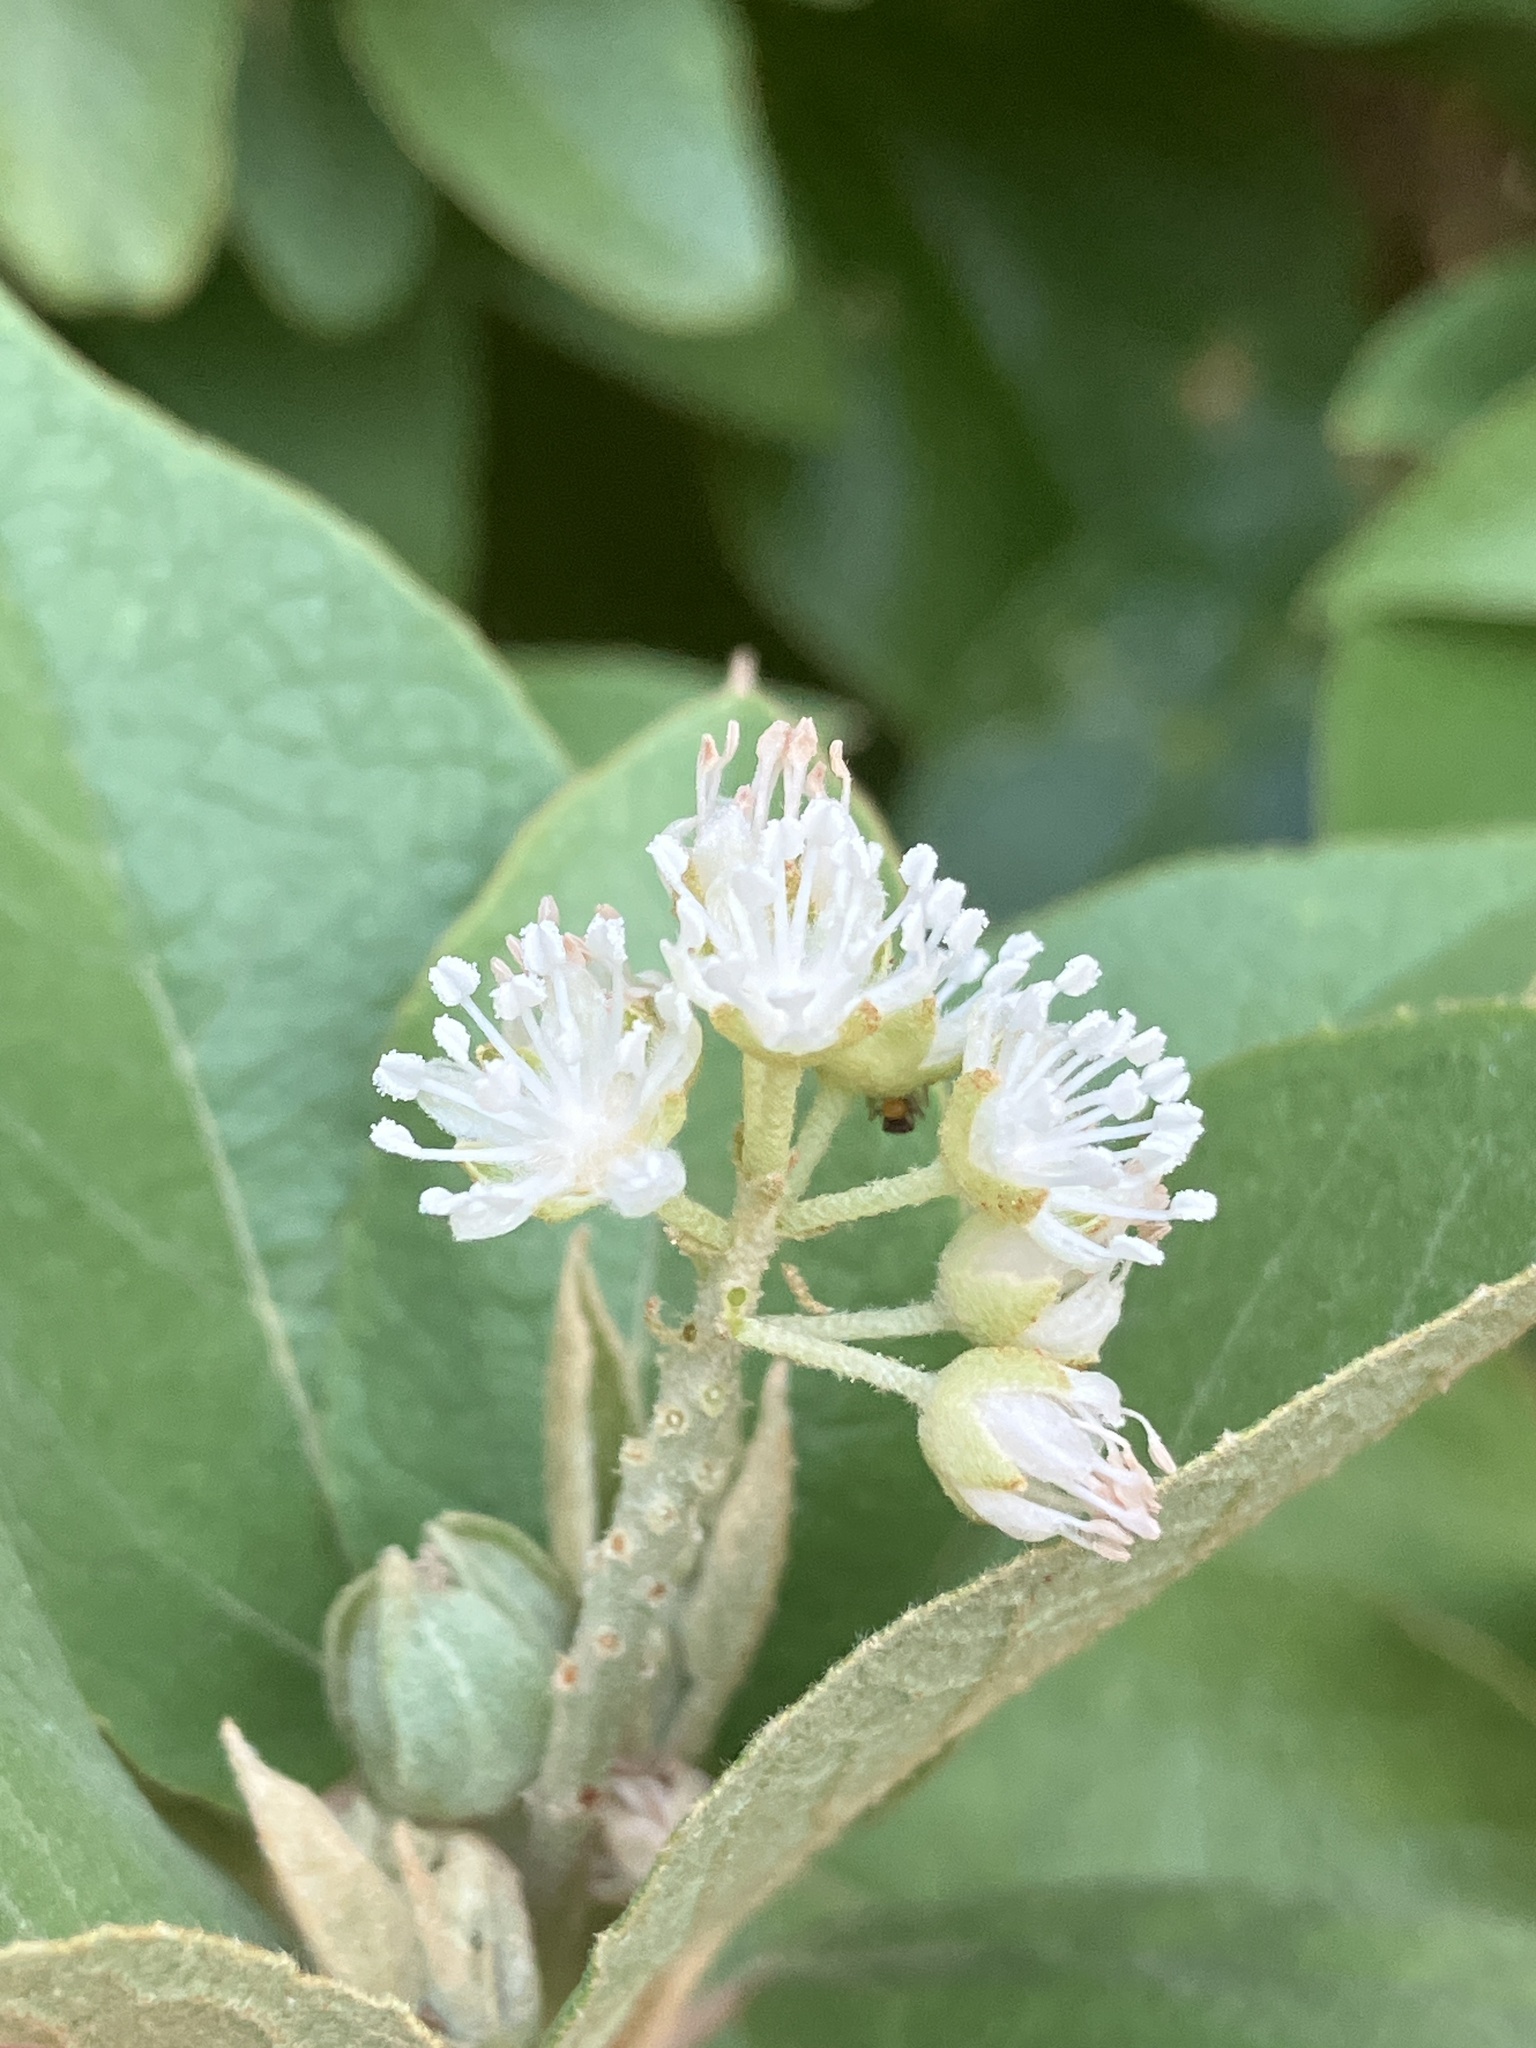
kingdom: Plantae
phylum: Tracheophyta
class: Magnoliopsida
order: Malpighiales
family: Euphorbiaceae
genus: Croton
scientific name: Croton astroites
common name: Wild marrow
